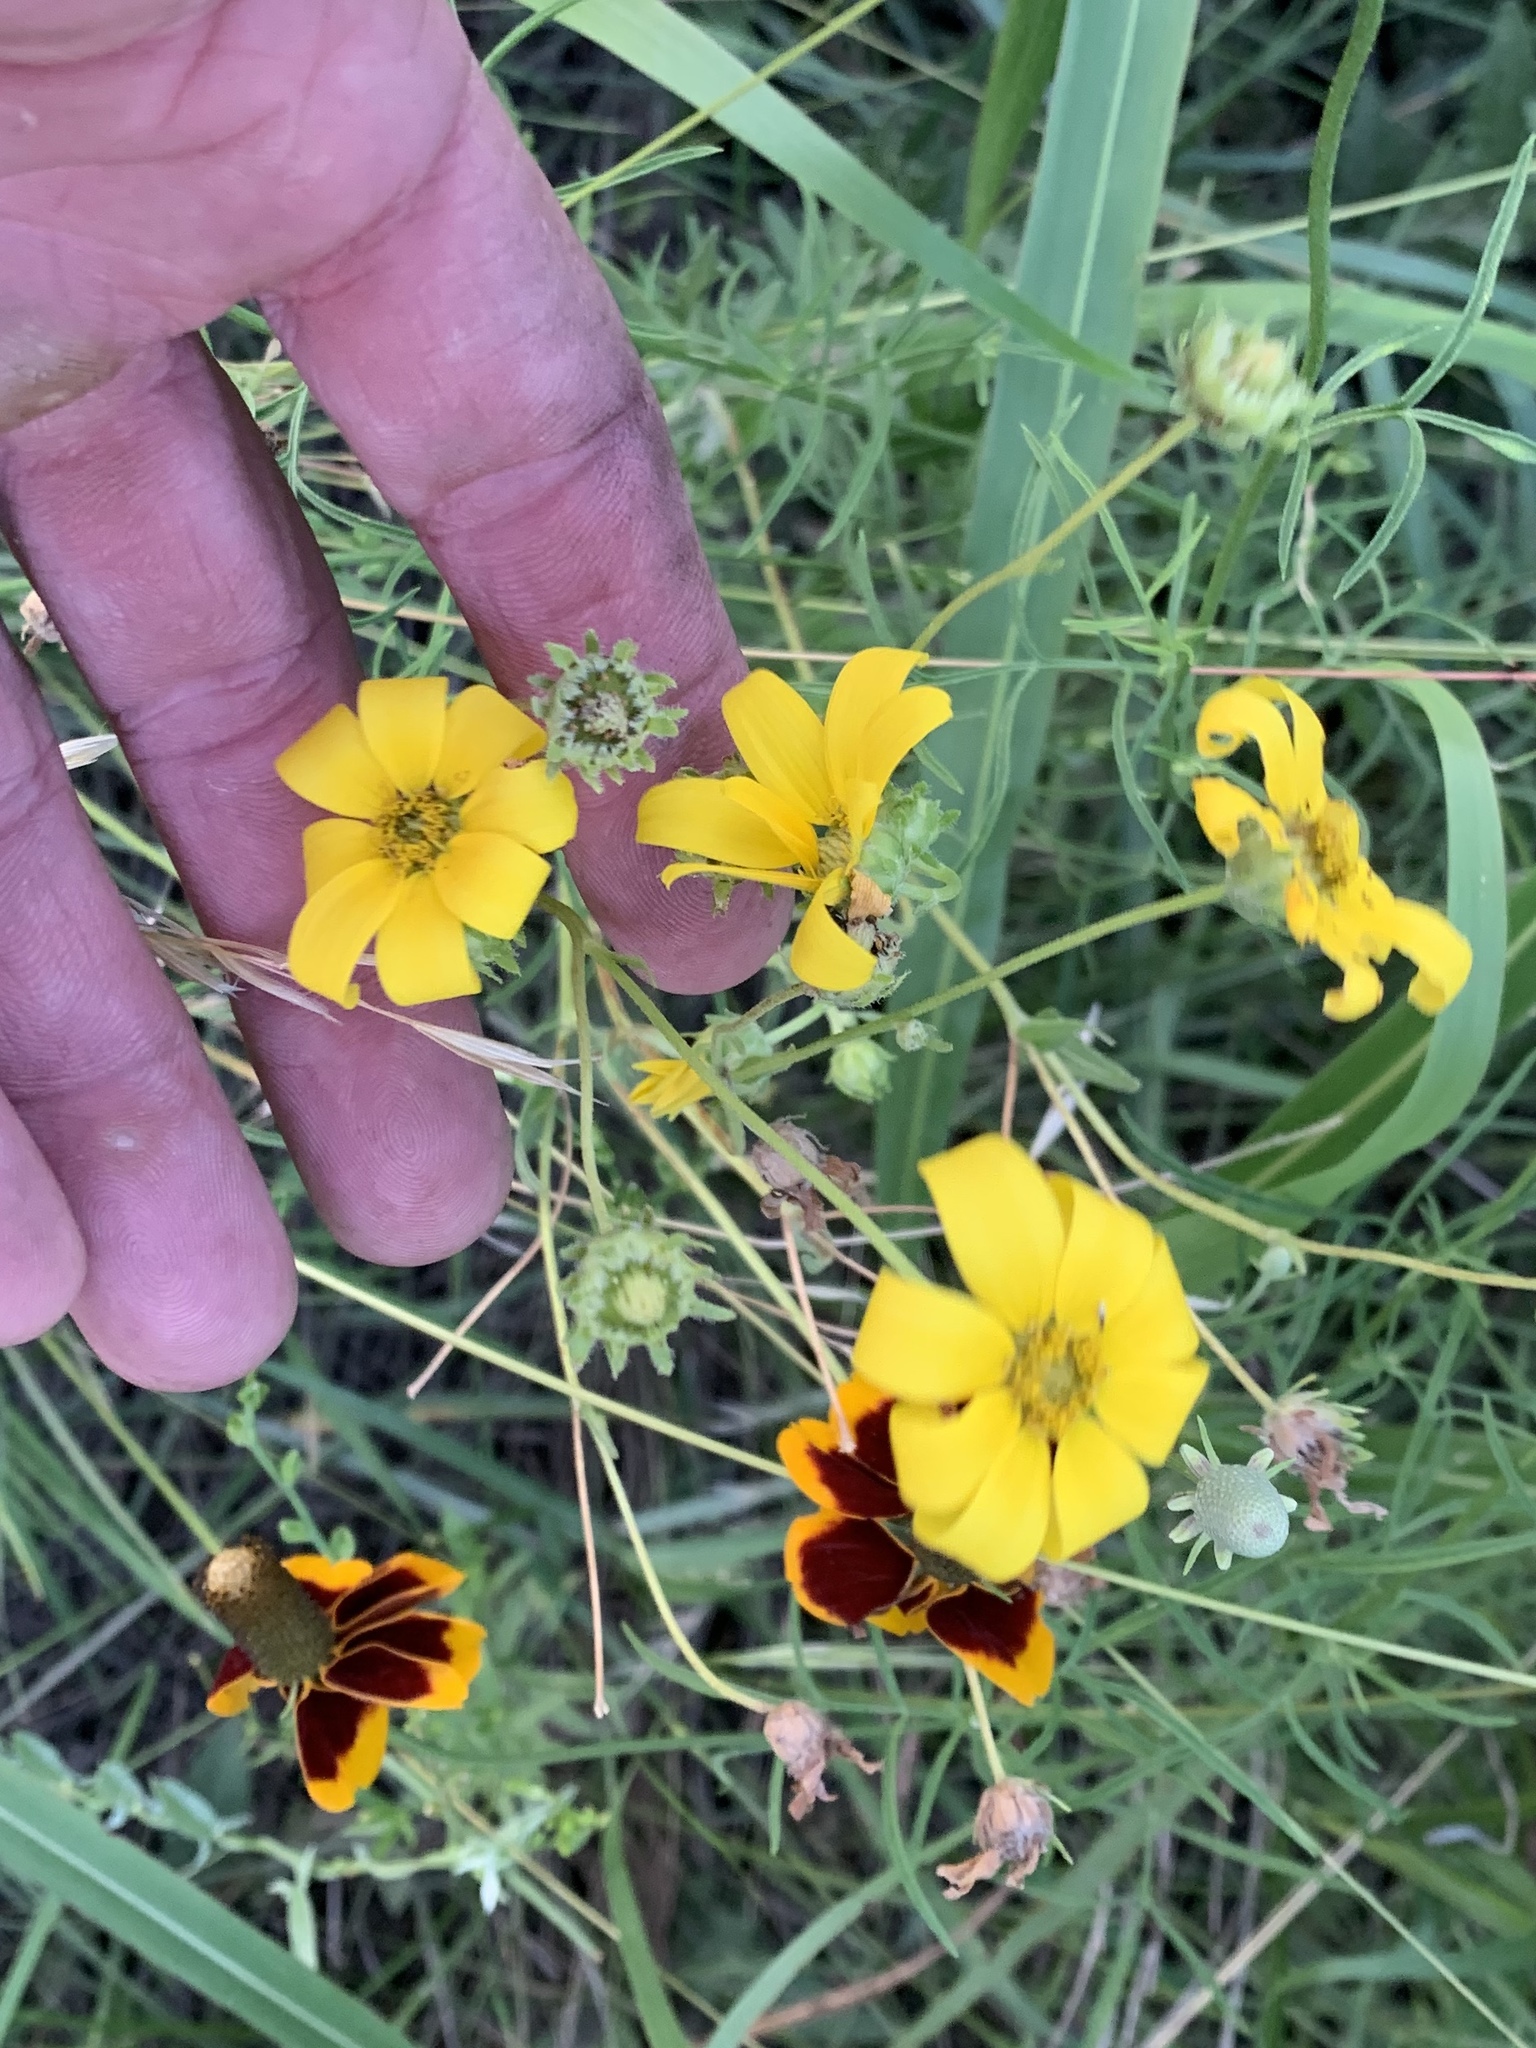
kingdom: Plantae
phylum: Tracheophyta
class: Magnoliopsida
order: Asterales
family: Asteraceae
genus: Engelmannia
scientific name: Engelmannia peristenia
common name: Engelmann's daisy
